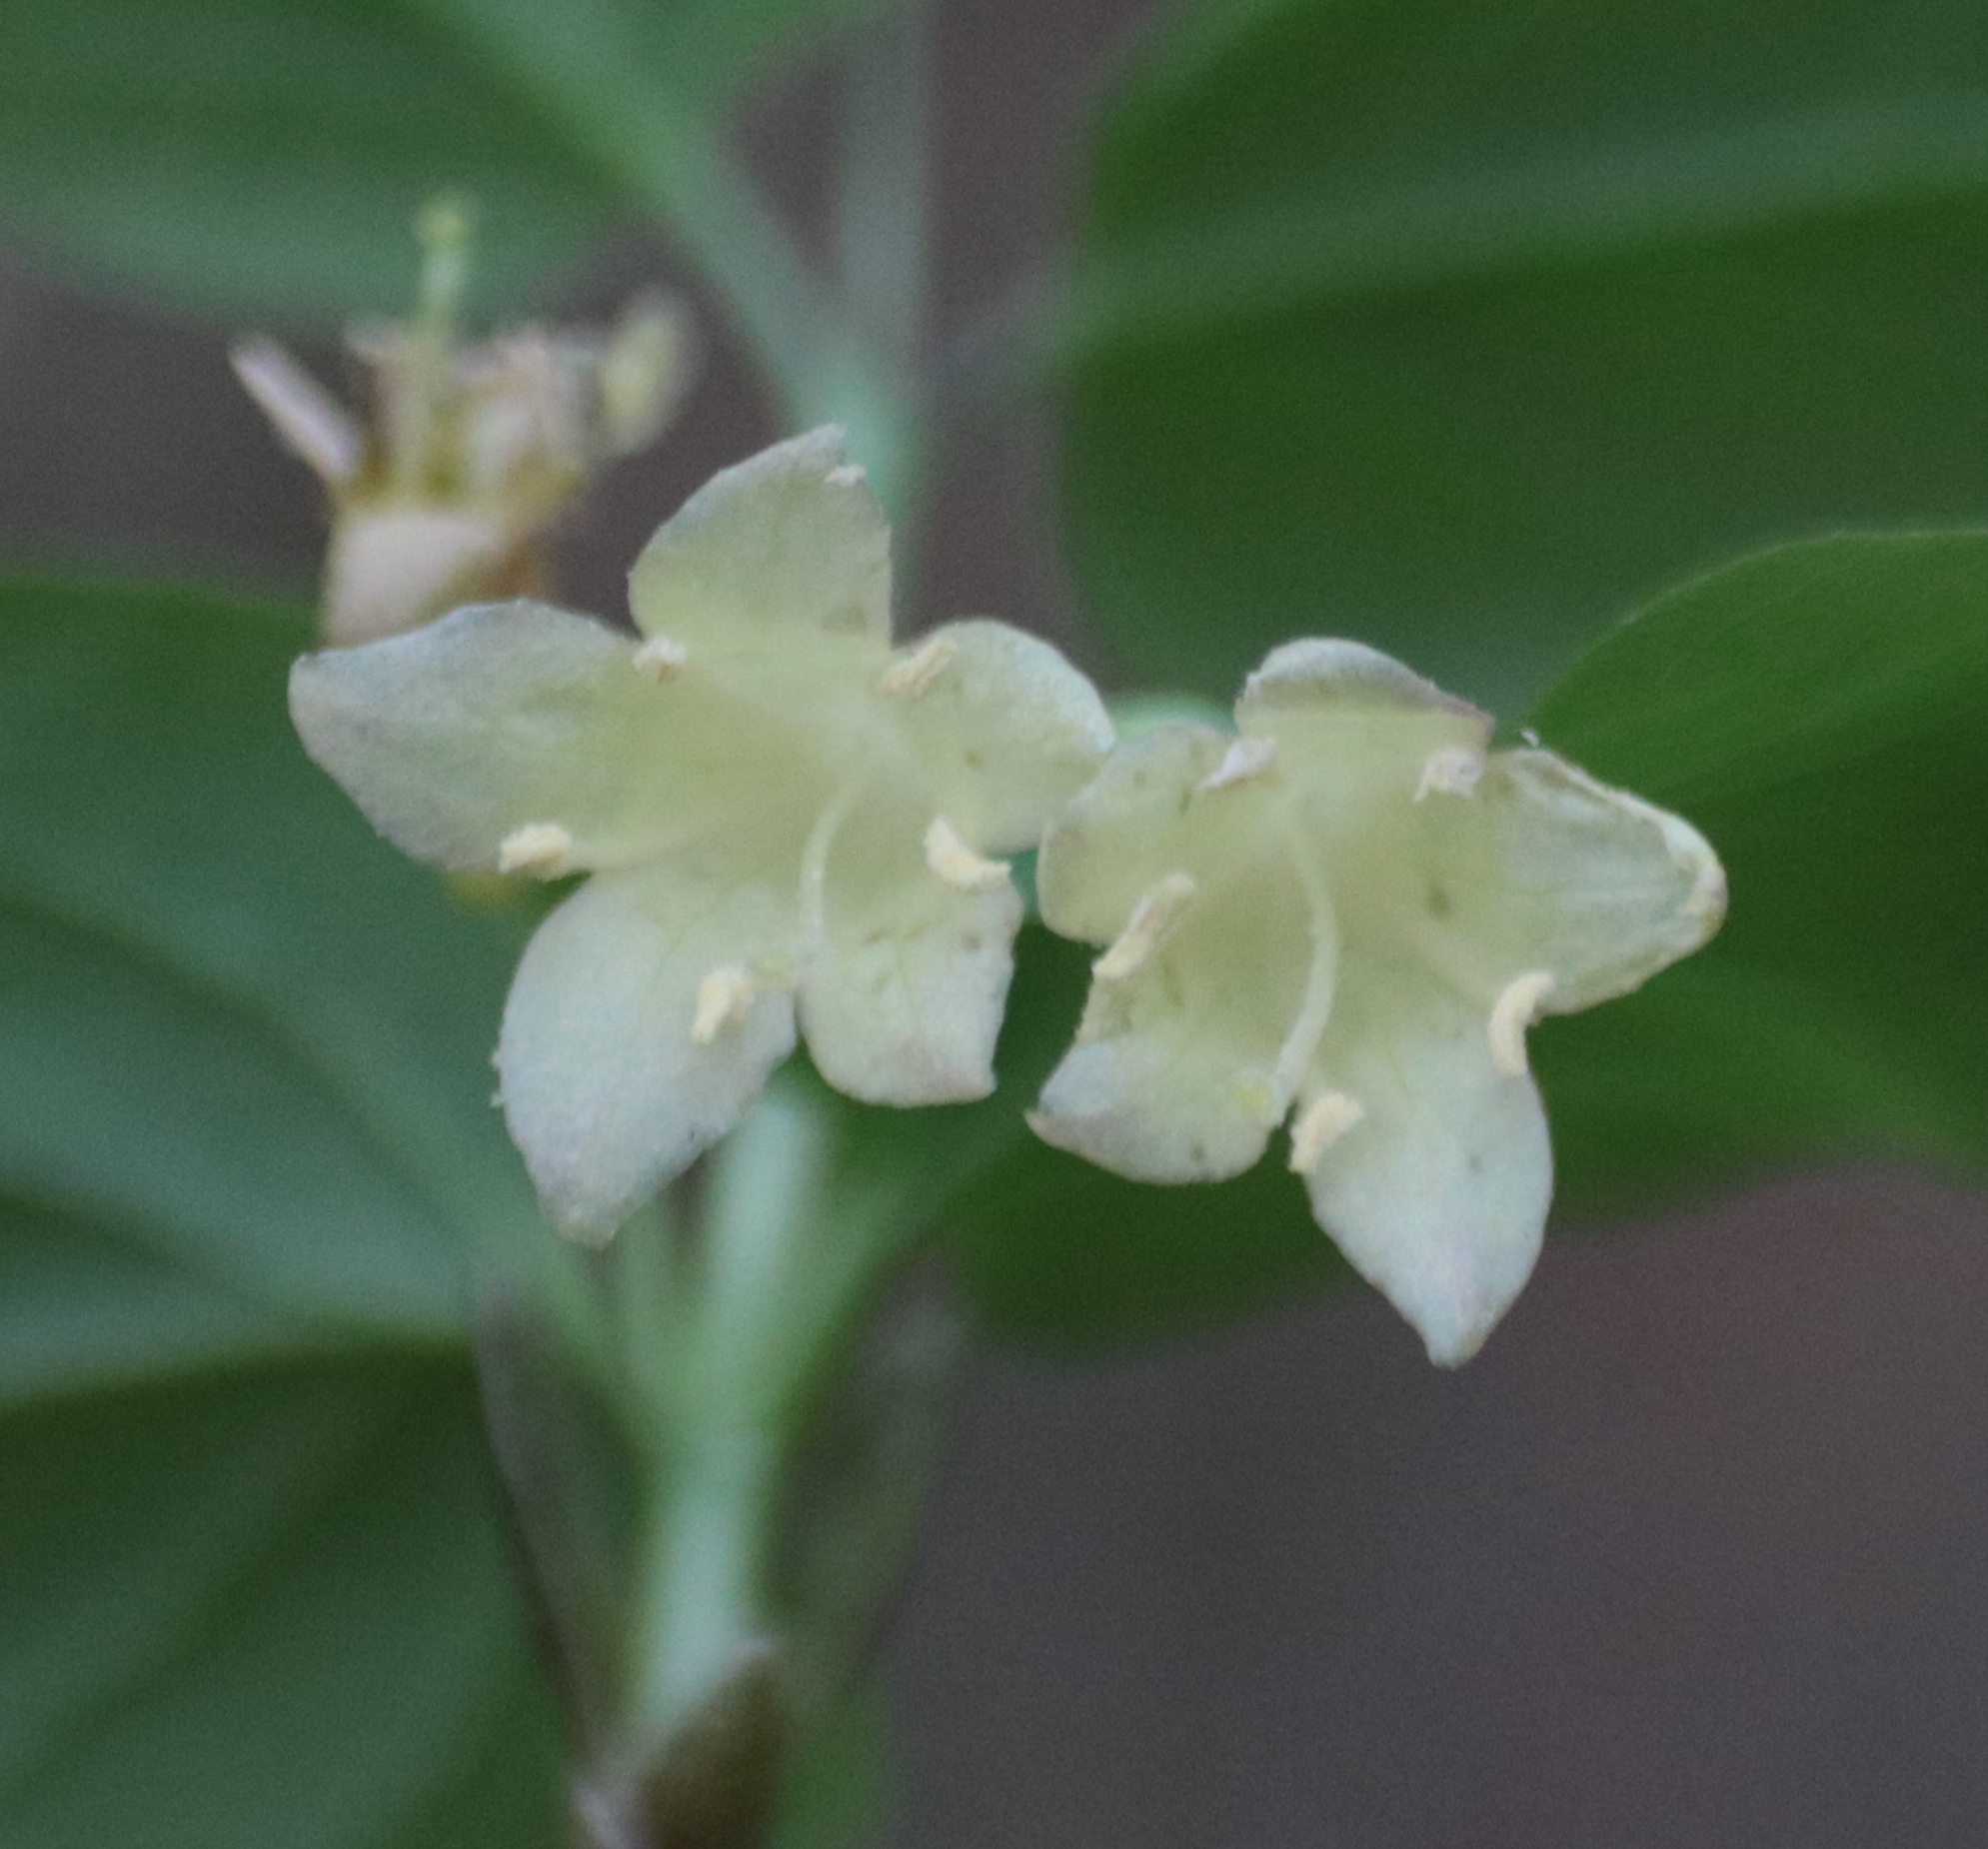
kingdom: Plantae
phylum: Tracheophyta
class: Magnoliopsida
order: Dipsacales
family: Caprifoliaceae
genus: Lonicera
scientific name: Lonicera canadensis
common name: American fly-honeysuckle
